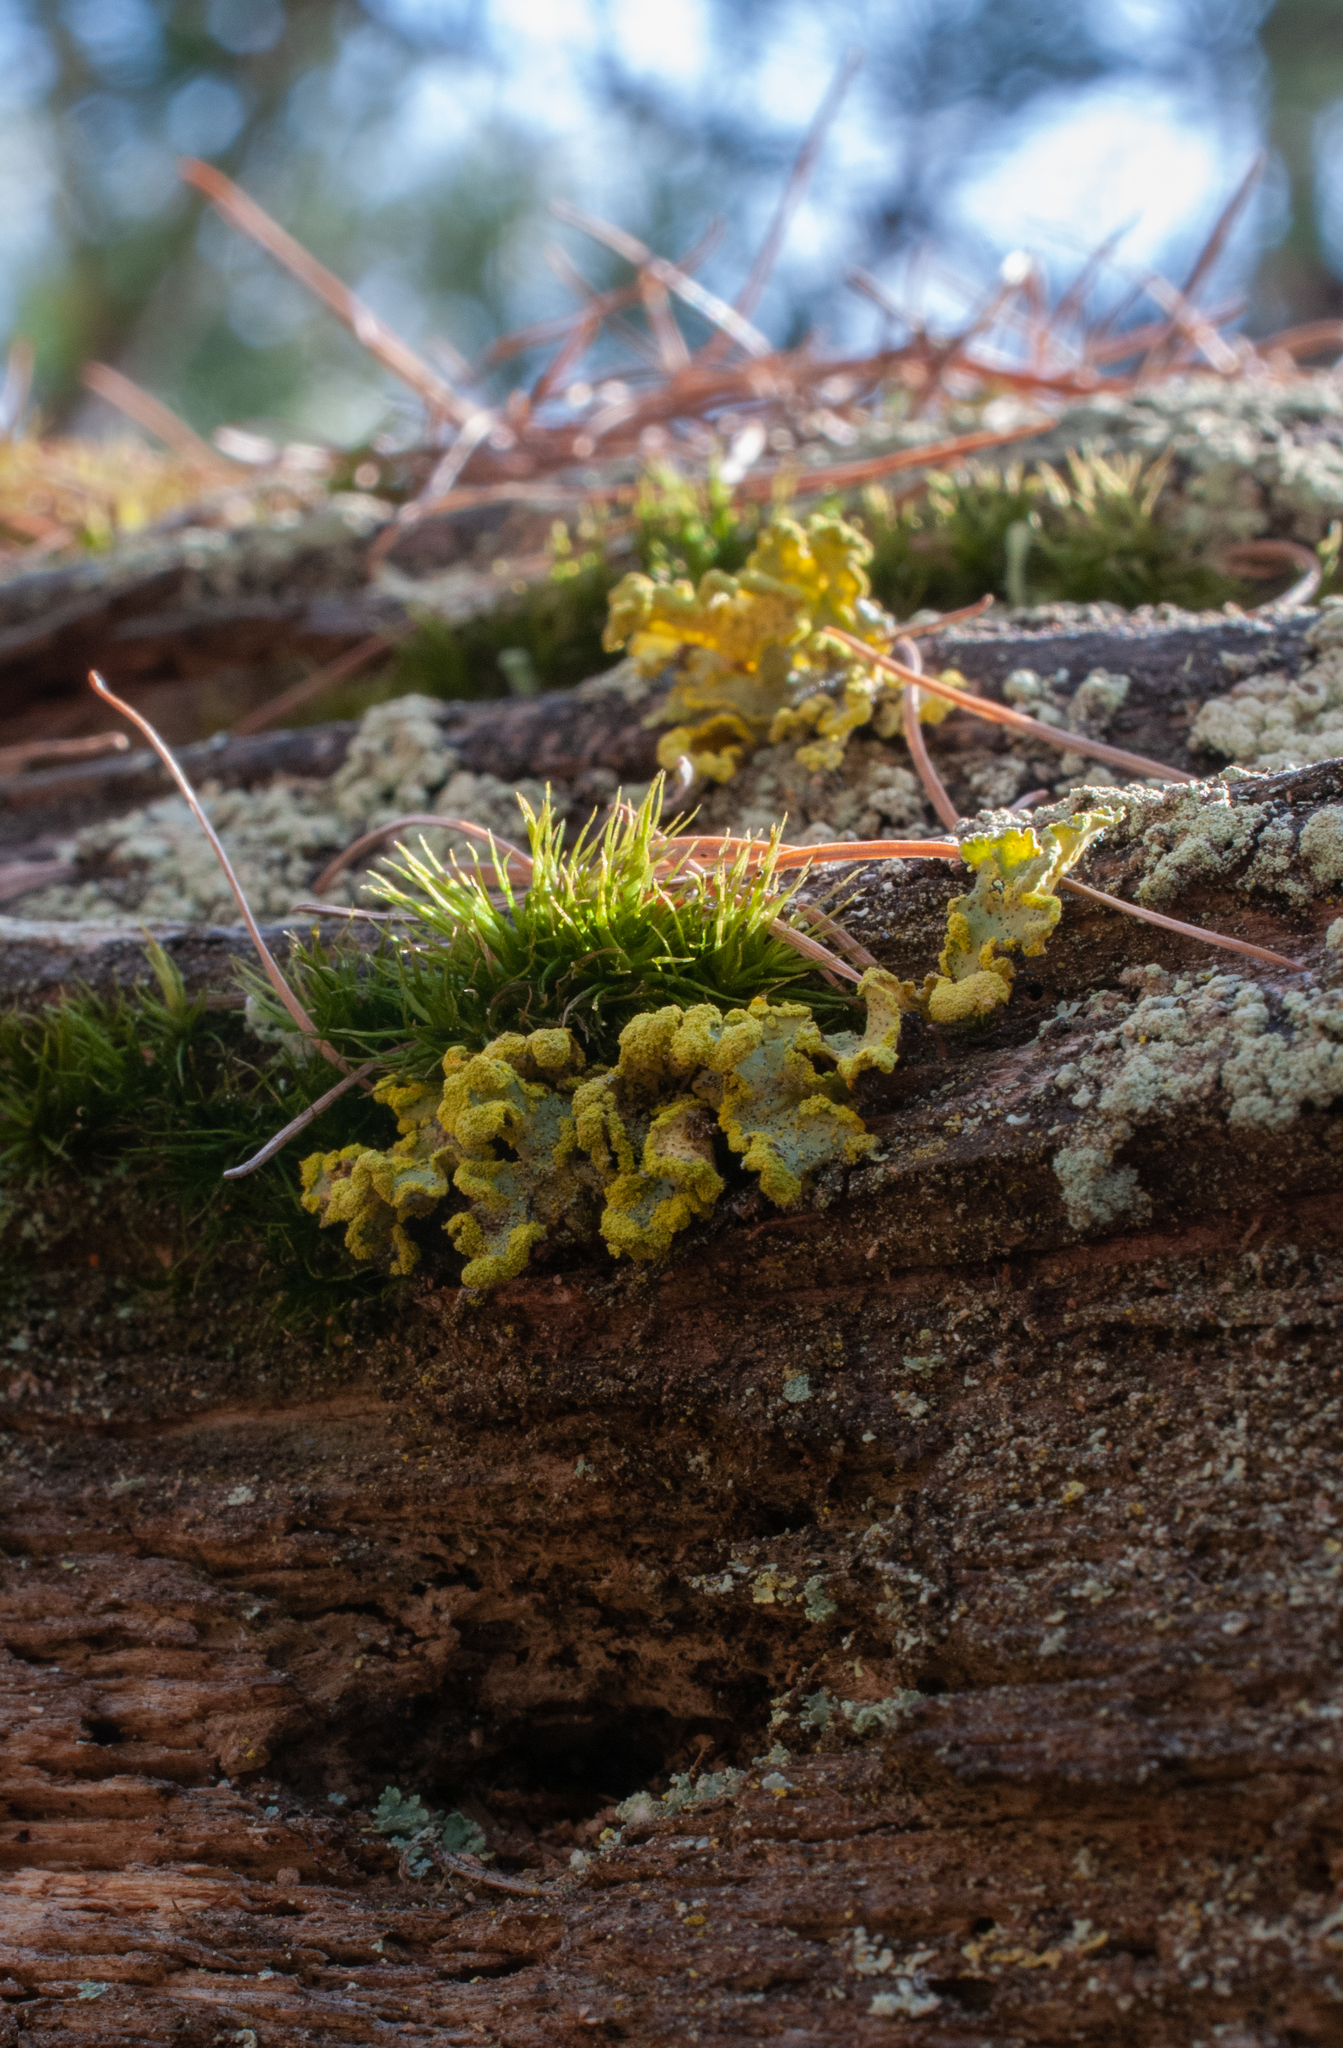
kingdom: Fungi
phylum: Ascomycota
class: Lecanoromycetes
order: Lecanorales
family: Parmeliaceae
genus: Vulpicida
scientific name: Vulpicida pinastri
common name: Powdered sunshine lichen
